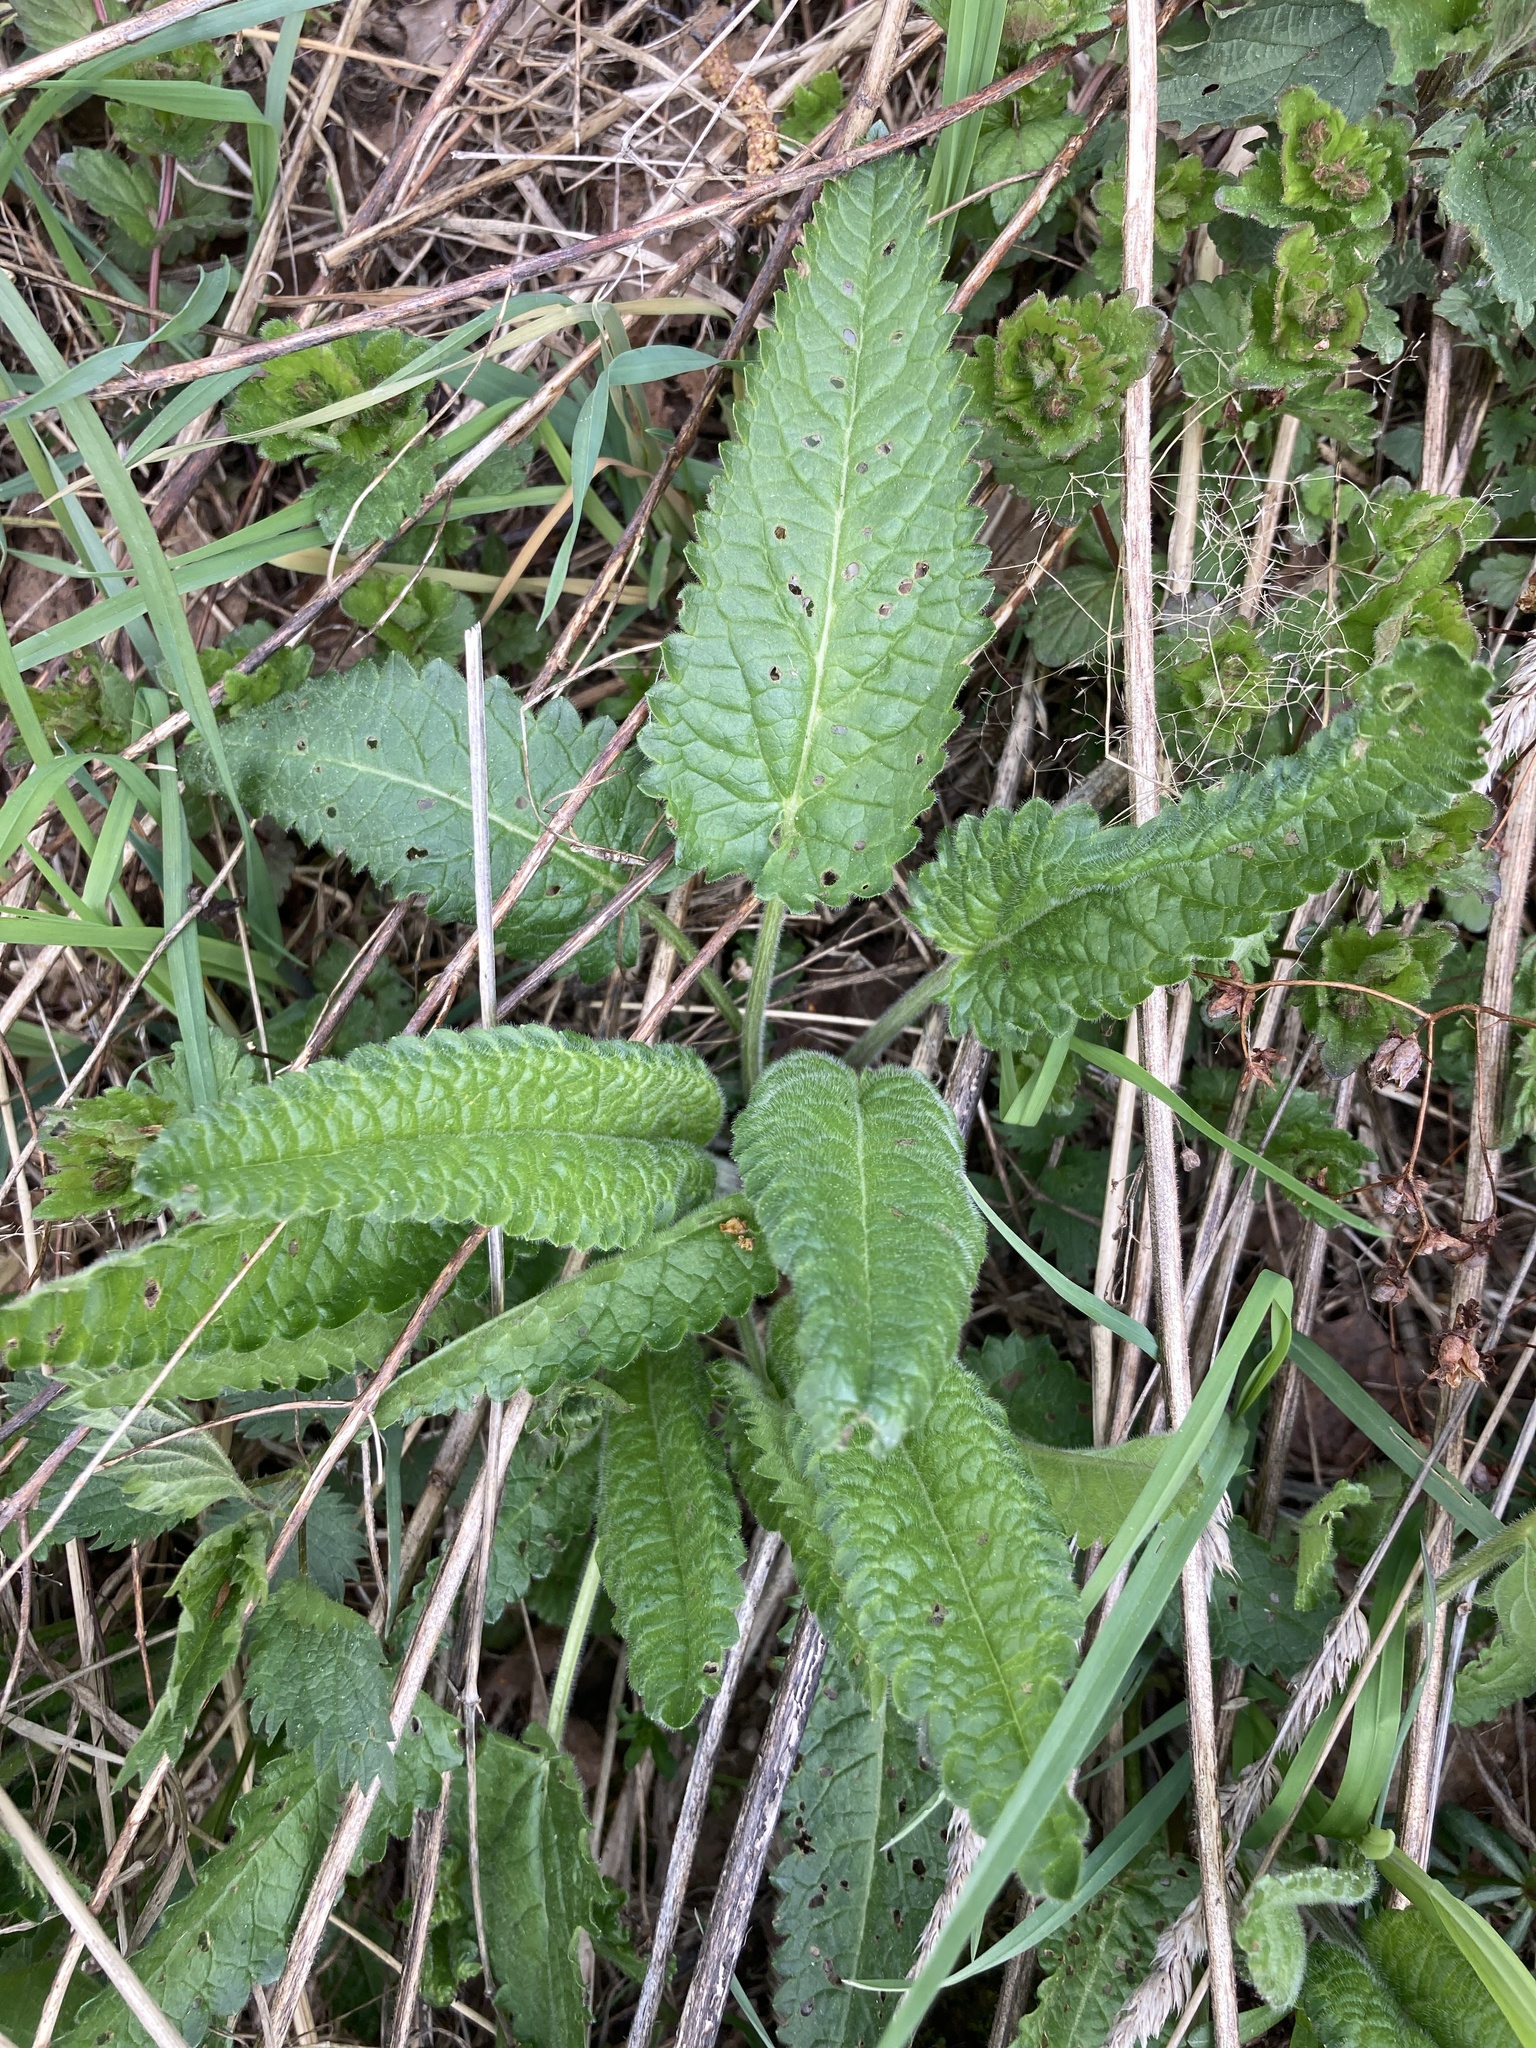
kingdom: Plantae
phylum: Tracheophyta
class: Magnoliopsida
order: Lamiales
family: Lamiaceae
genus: Betonica
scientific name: Betonica officinalis
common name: Bishop's-wort
